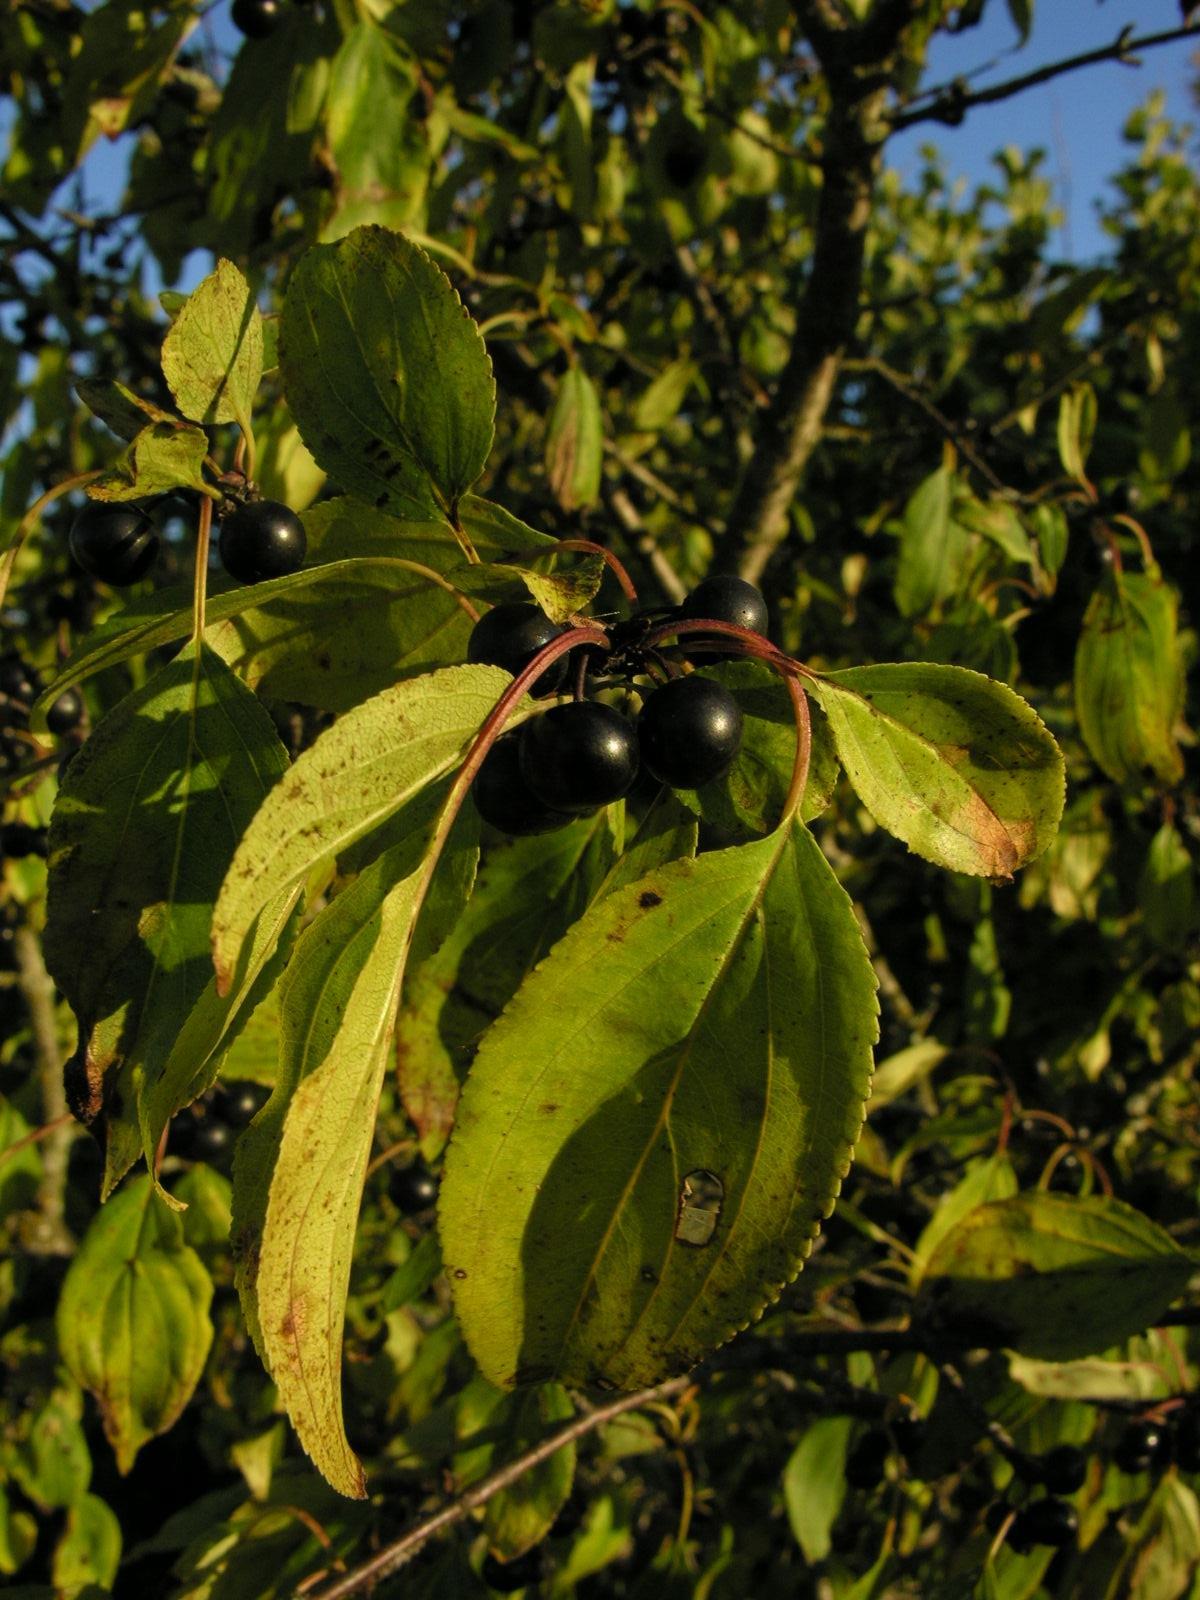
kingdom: Plantae
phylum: Tracheophyta
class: Magnoliopsida
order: Rosales
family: Rhamnaceae
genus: Rhamnus
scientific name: Rhamnus cathartica
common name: Common buckthorn
